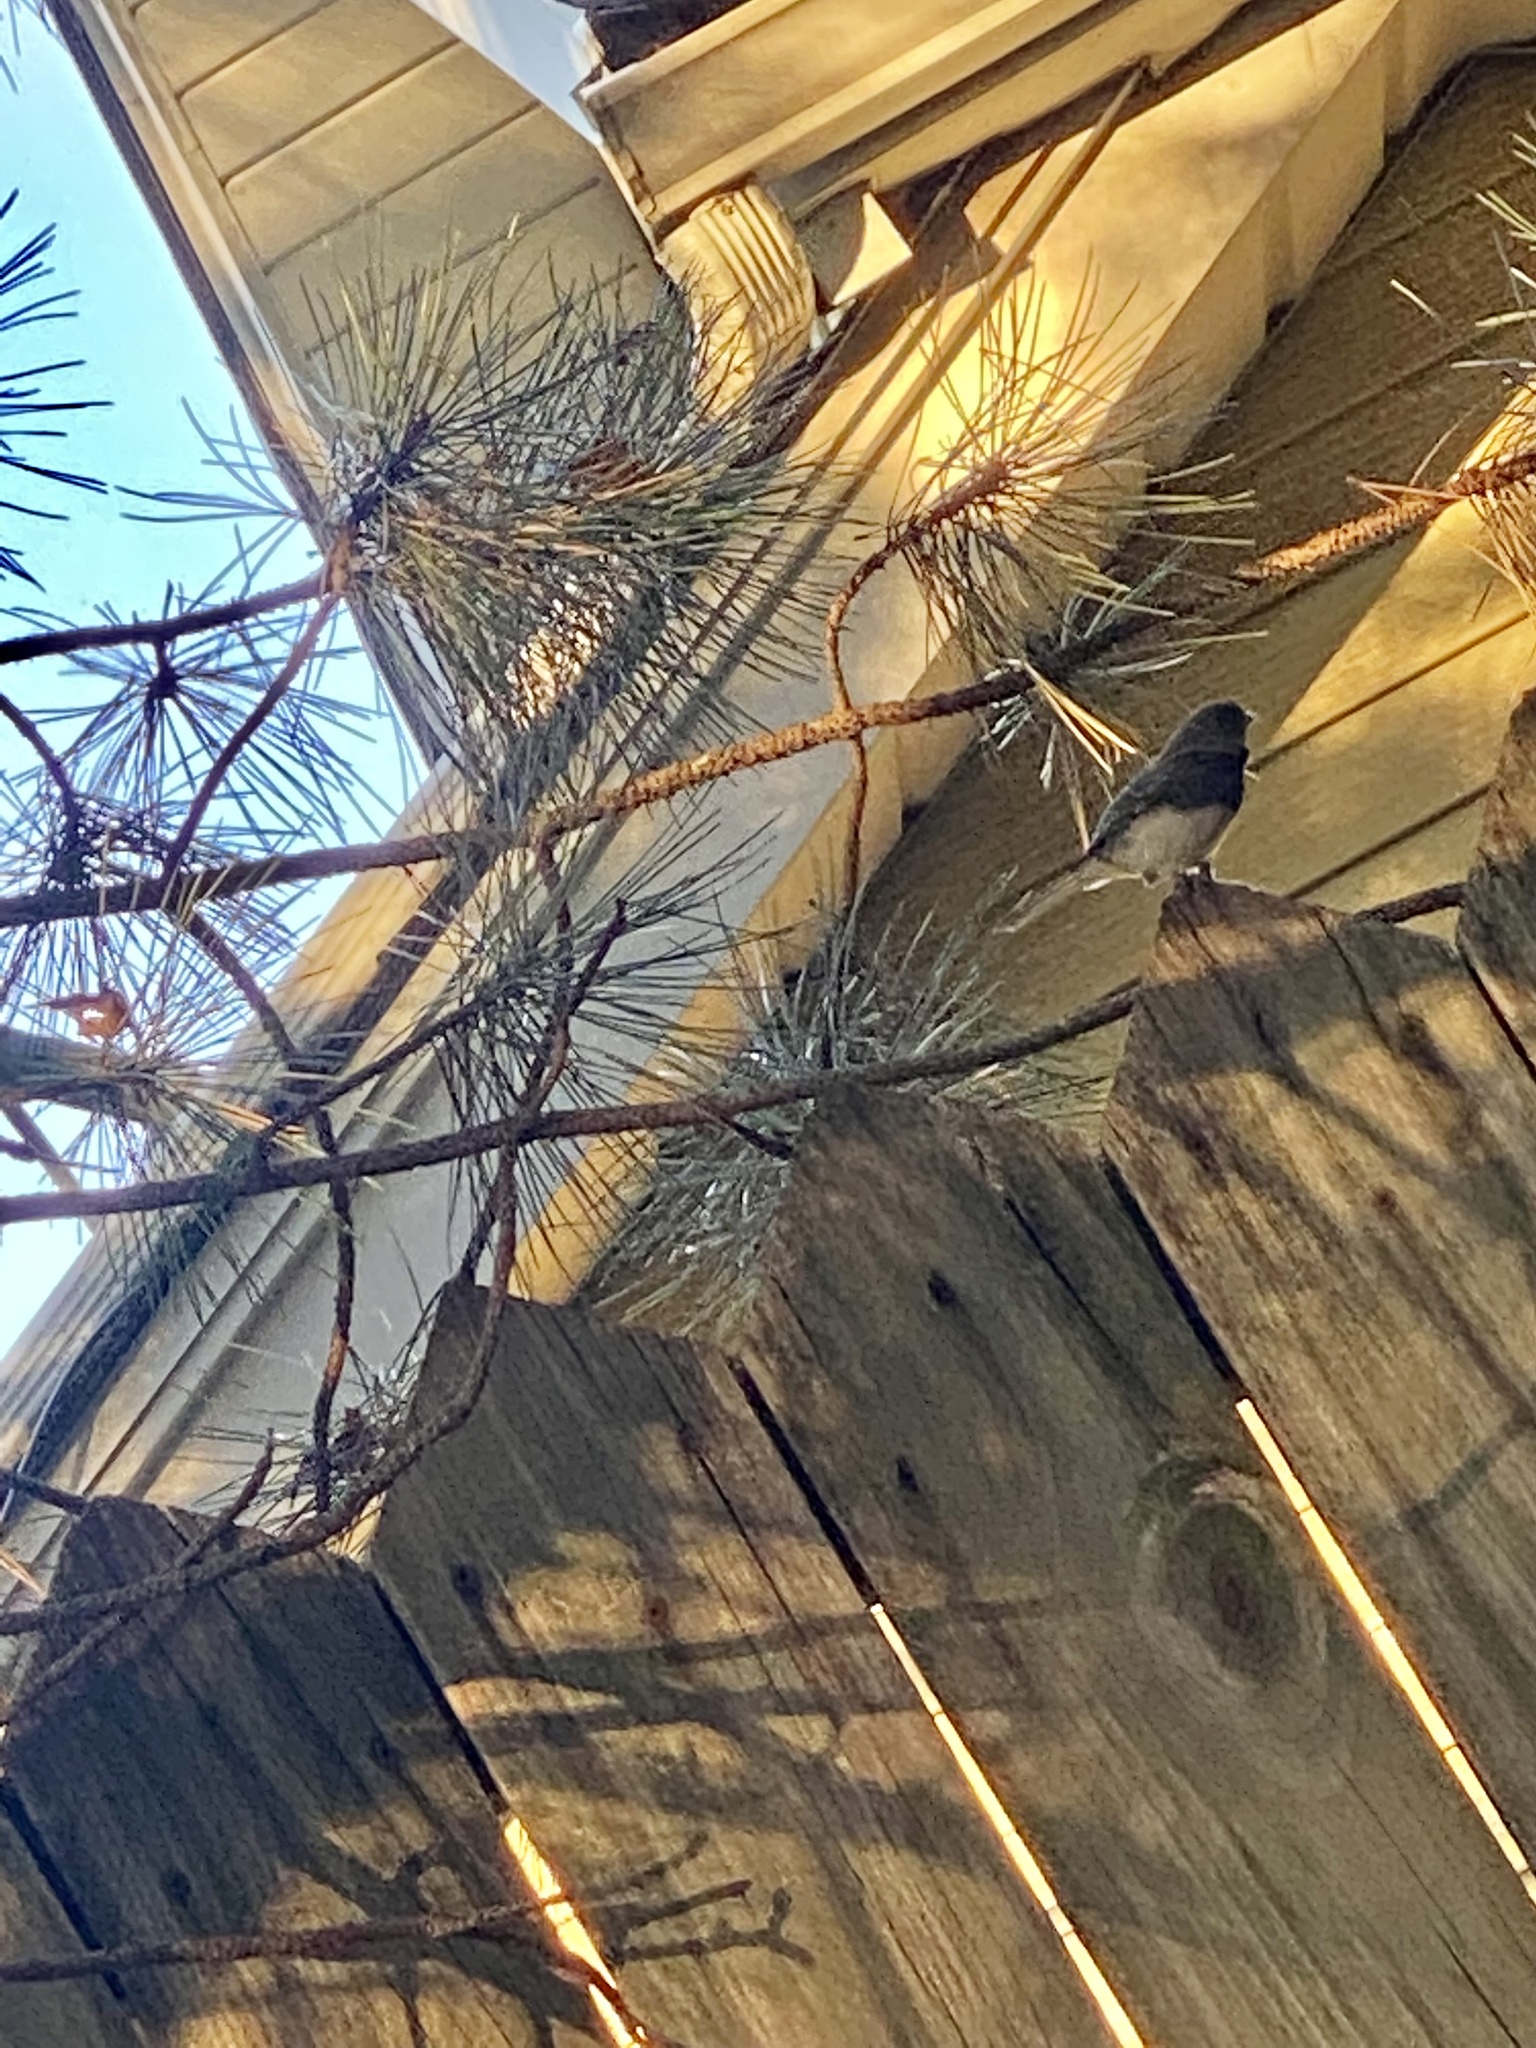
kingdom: Animalia
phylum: Chordata
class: Aves
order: Passeriformes
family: Passerellidae
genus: Junco
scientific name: Junco hyemalis
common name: Dark-eyed junco
